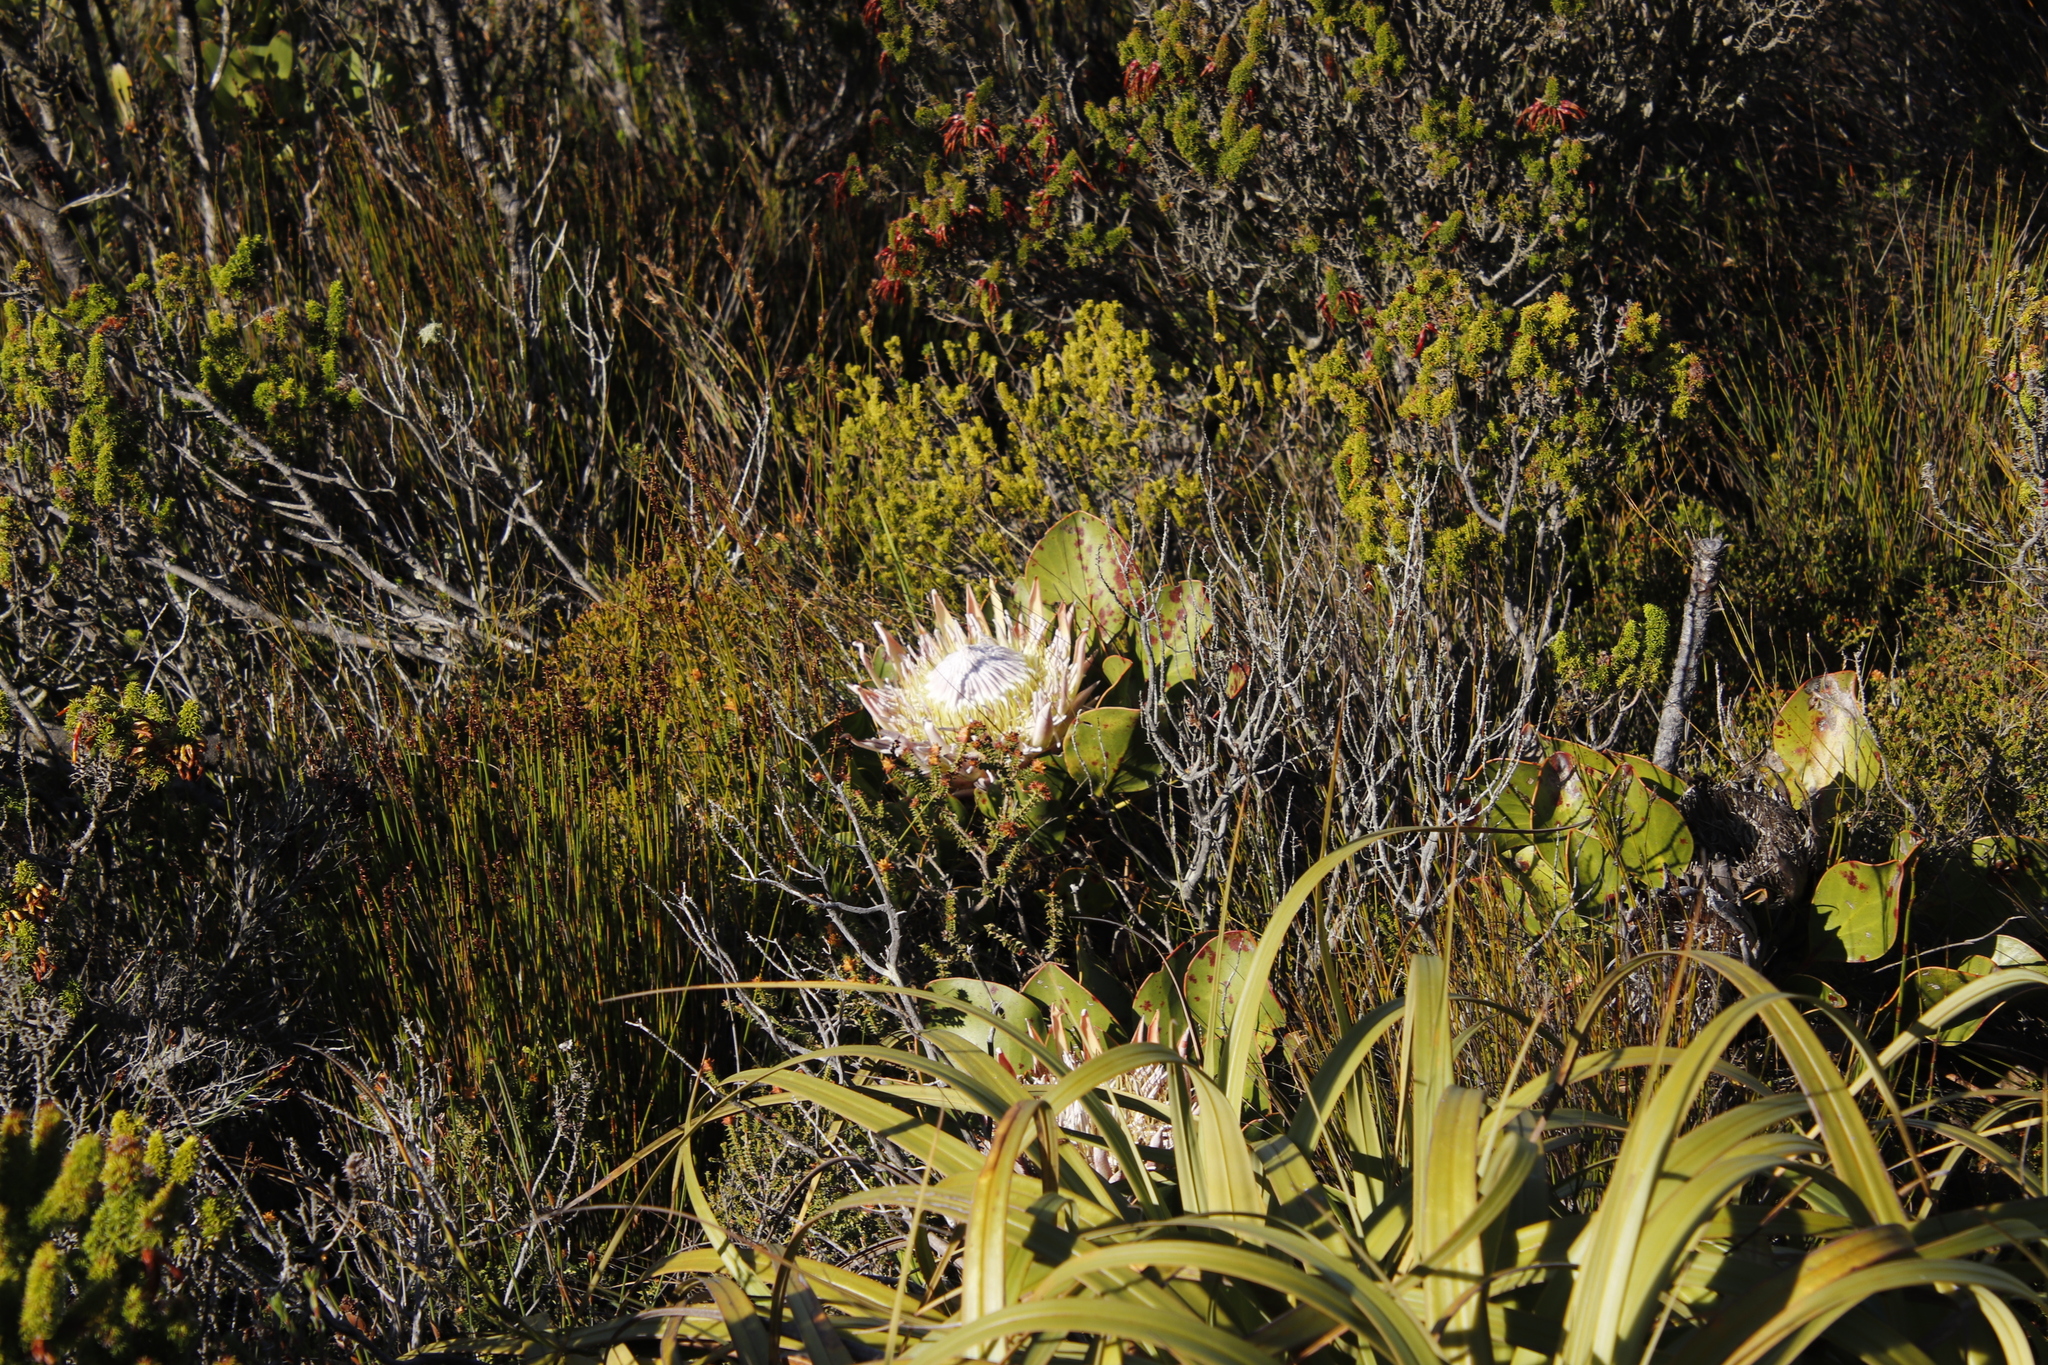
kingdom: Plantae
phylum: Tracheophyta
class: Magnoliopsida
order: Proteales
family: Proteaceae
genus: Protea
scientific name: Protea cynaroides
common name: King protea
